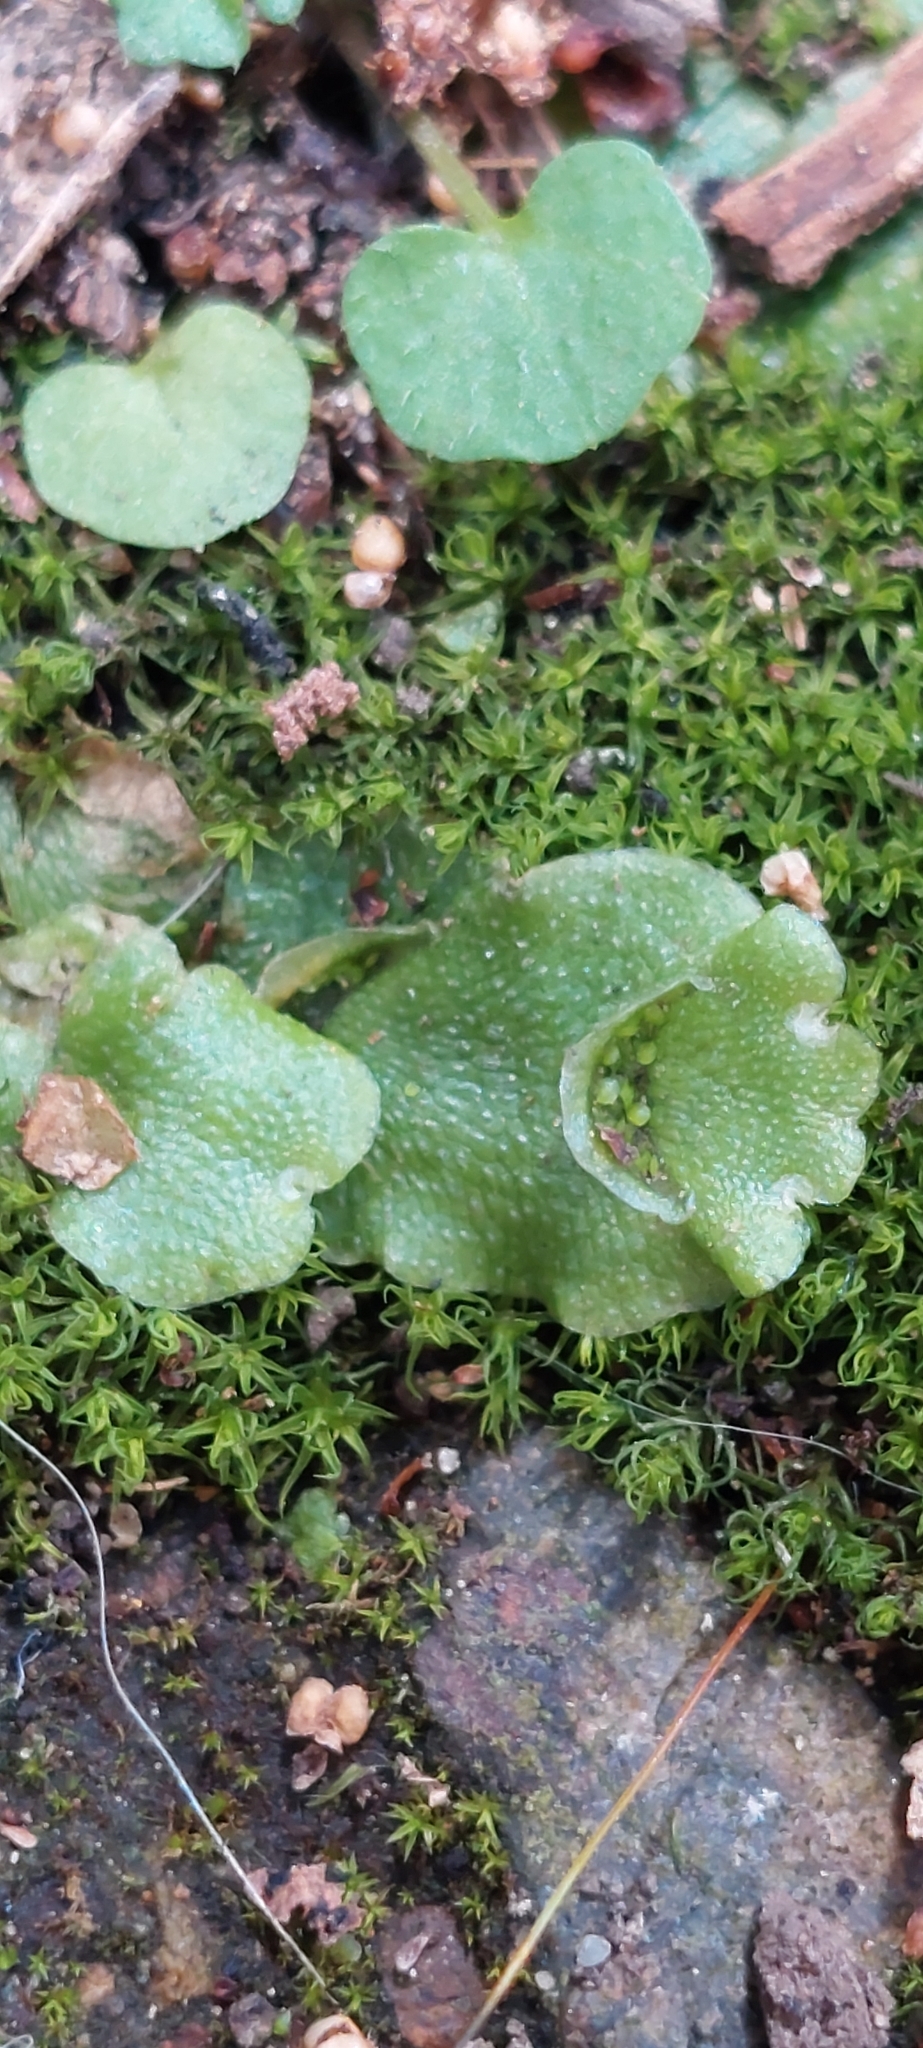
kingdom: Plantae
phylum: Marchantiophyta
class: Marchantiopsida
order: Lunulariales
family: Lunulariaceae
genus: Lunularia
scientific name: Lunularia cruciata
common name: Crescent-cup liverwort
